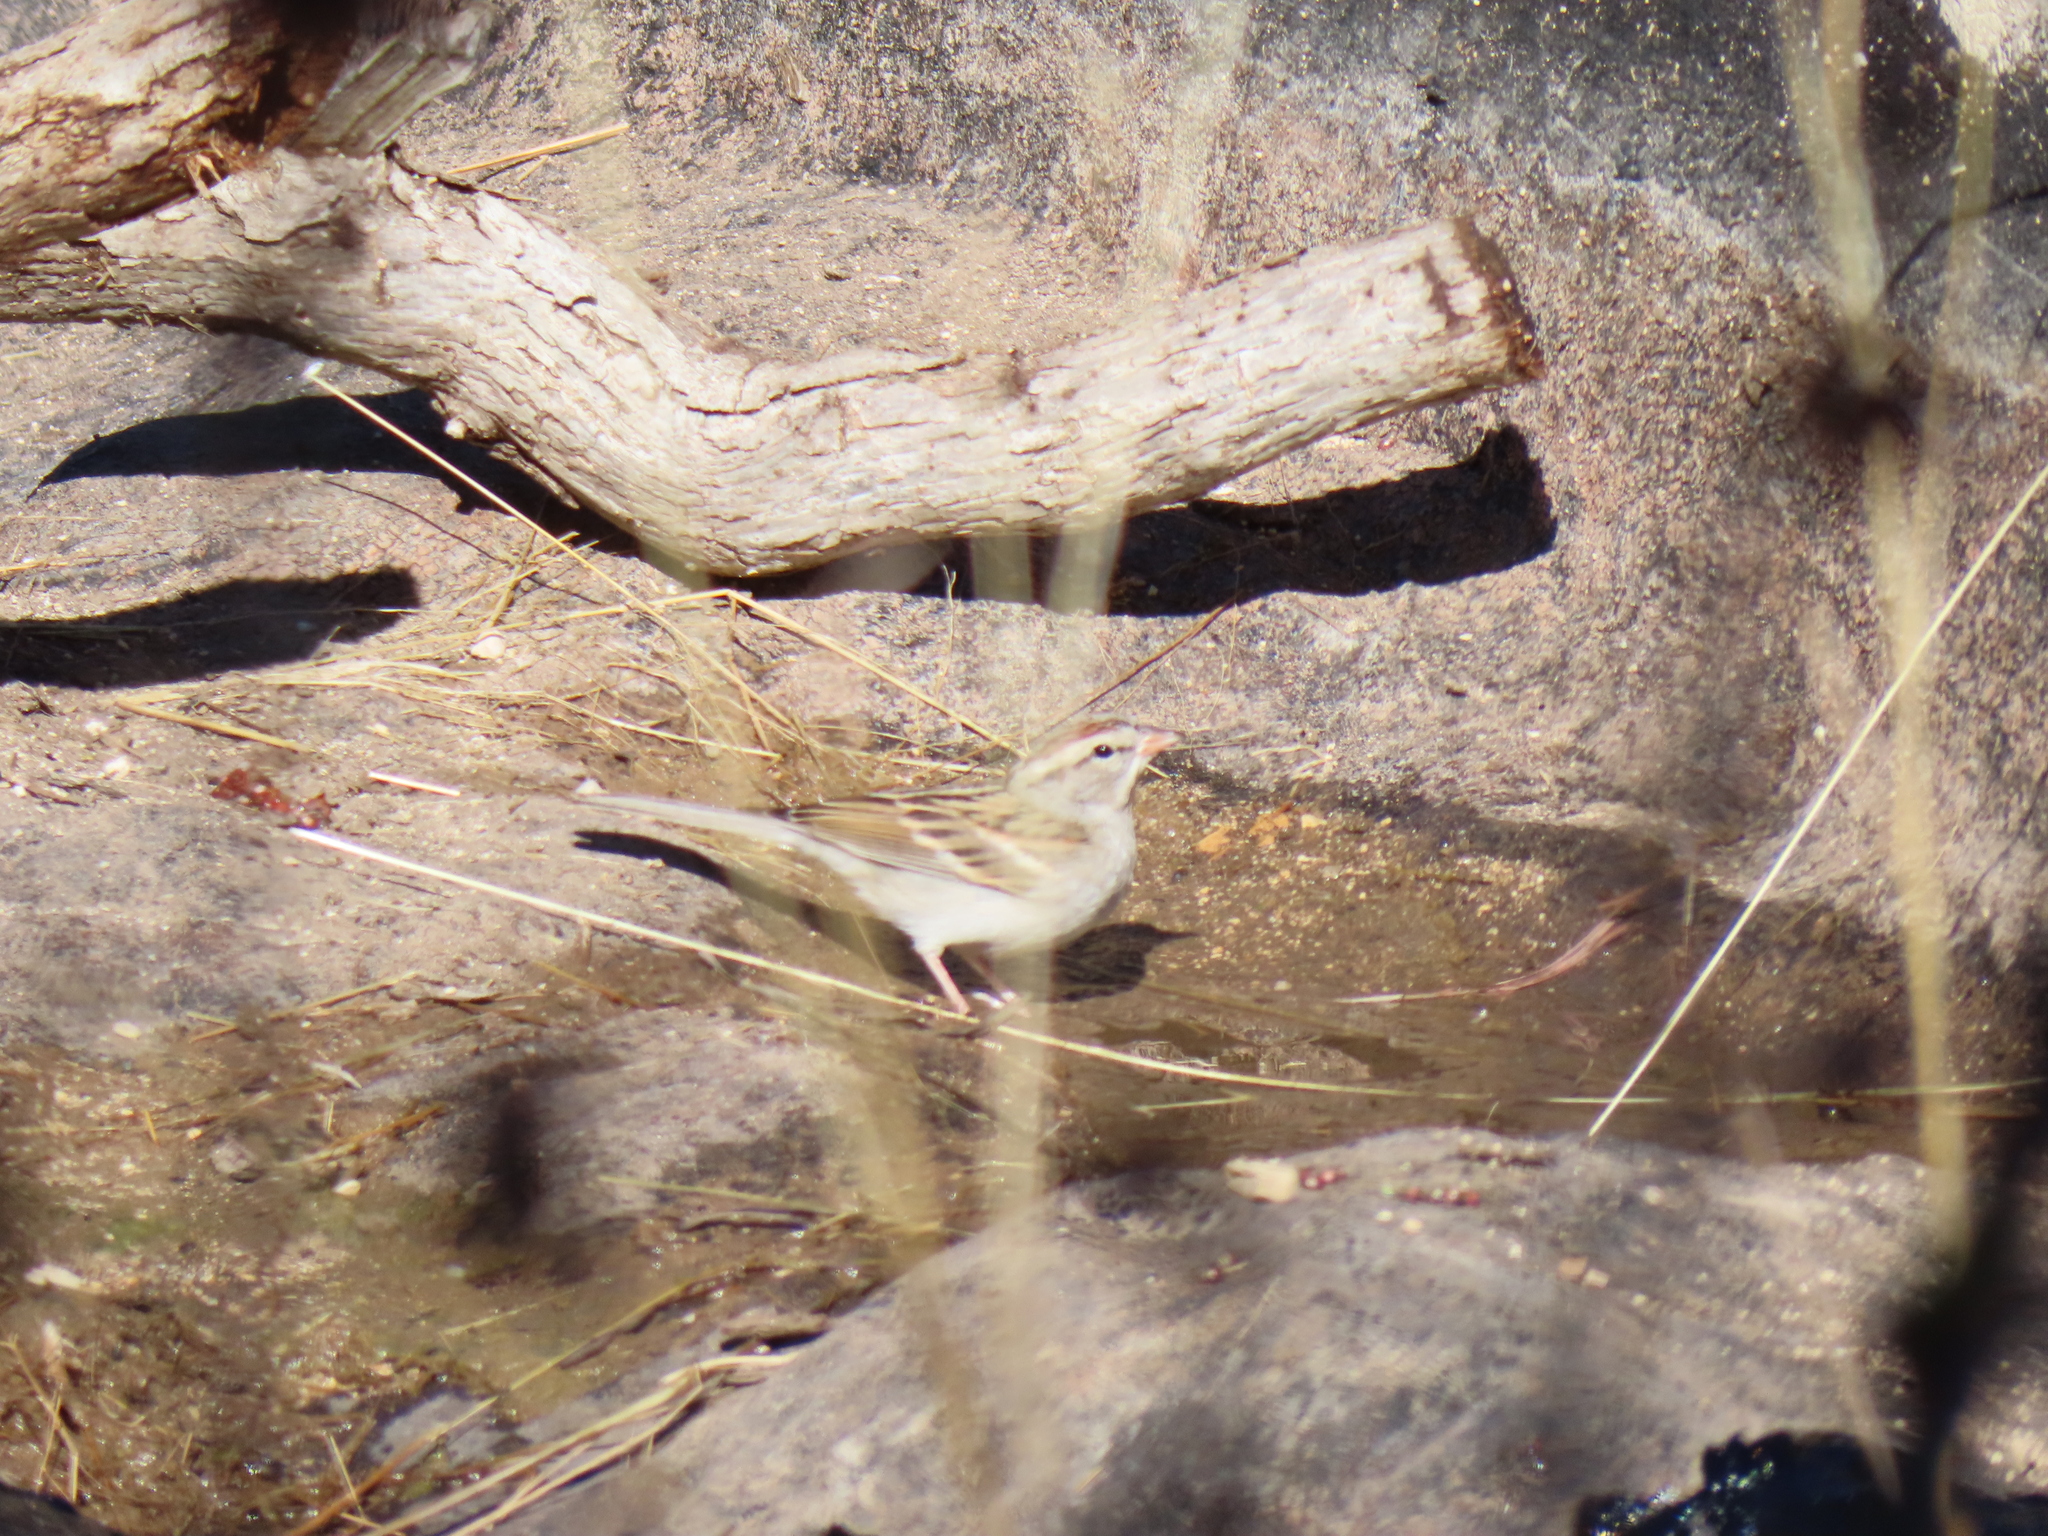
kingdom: Animalia
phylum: Chordata
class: Aves
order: Passeriformes
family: Passerellidae
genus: Spizella
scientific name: Spizella passerina
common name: Chipping sparrow
